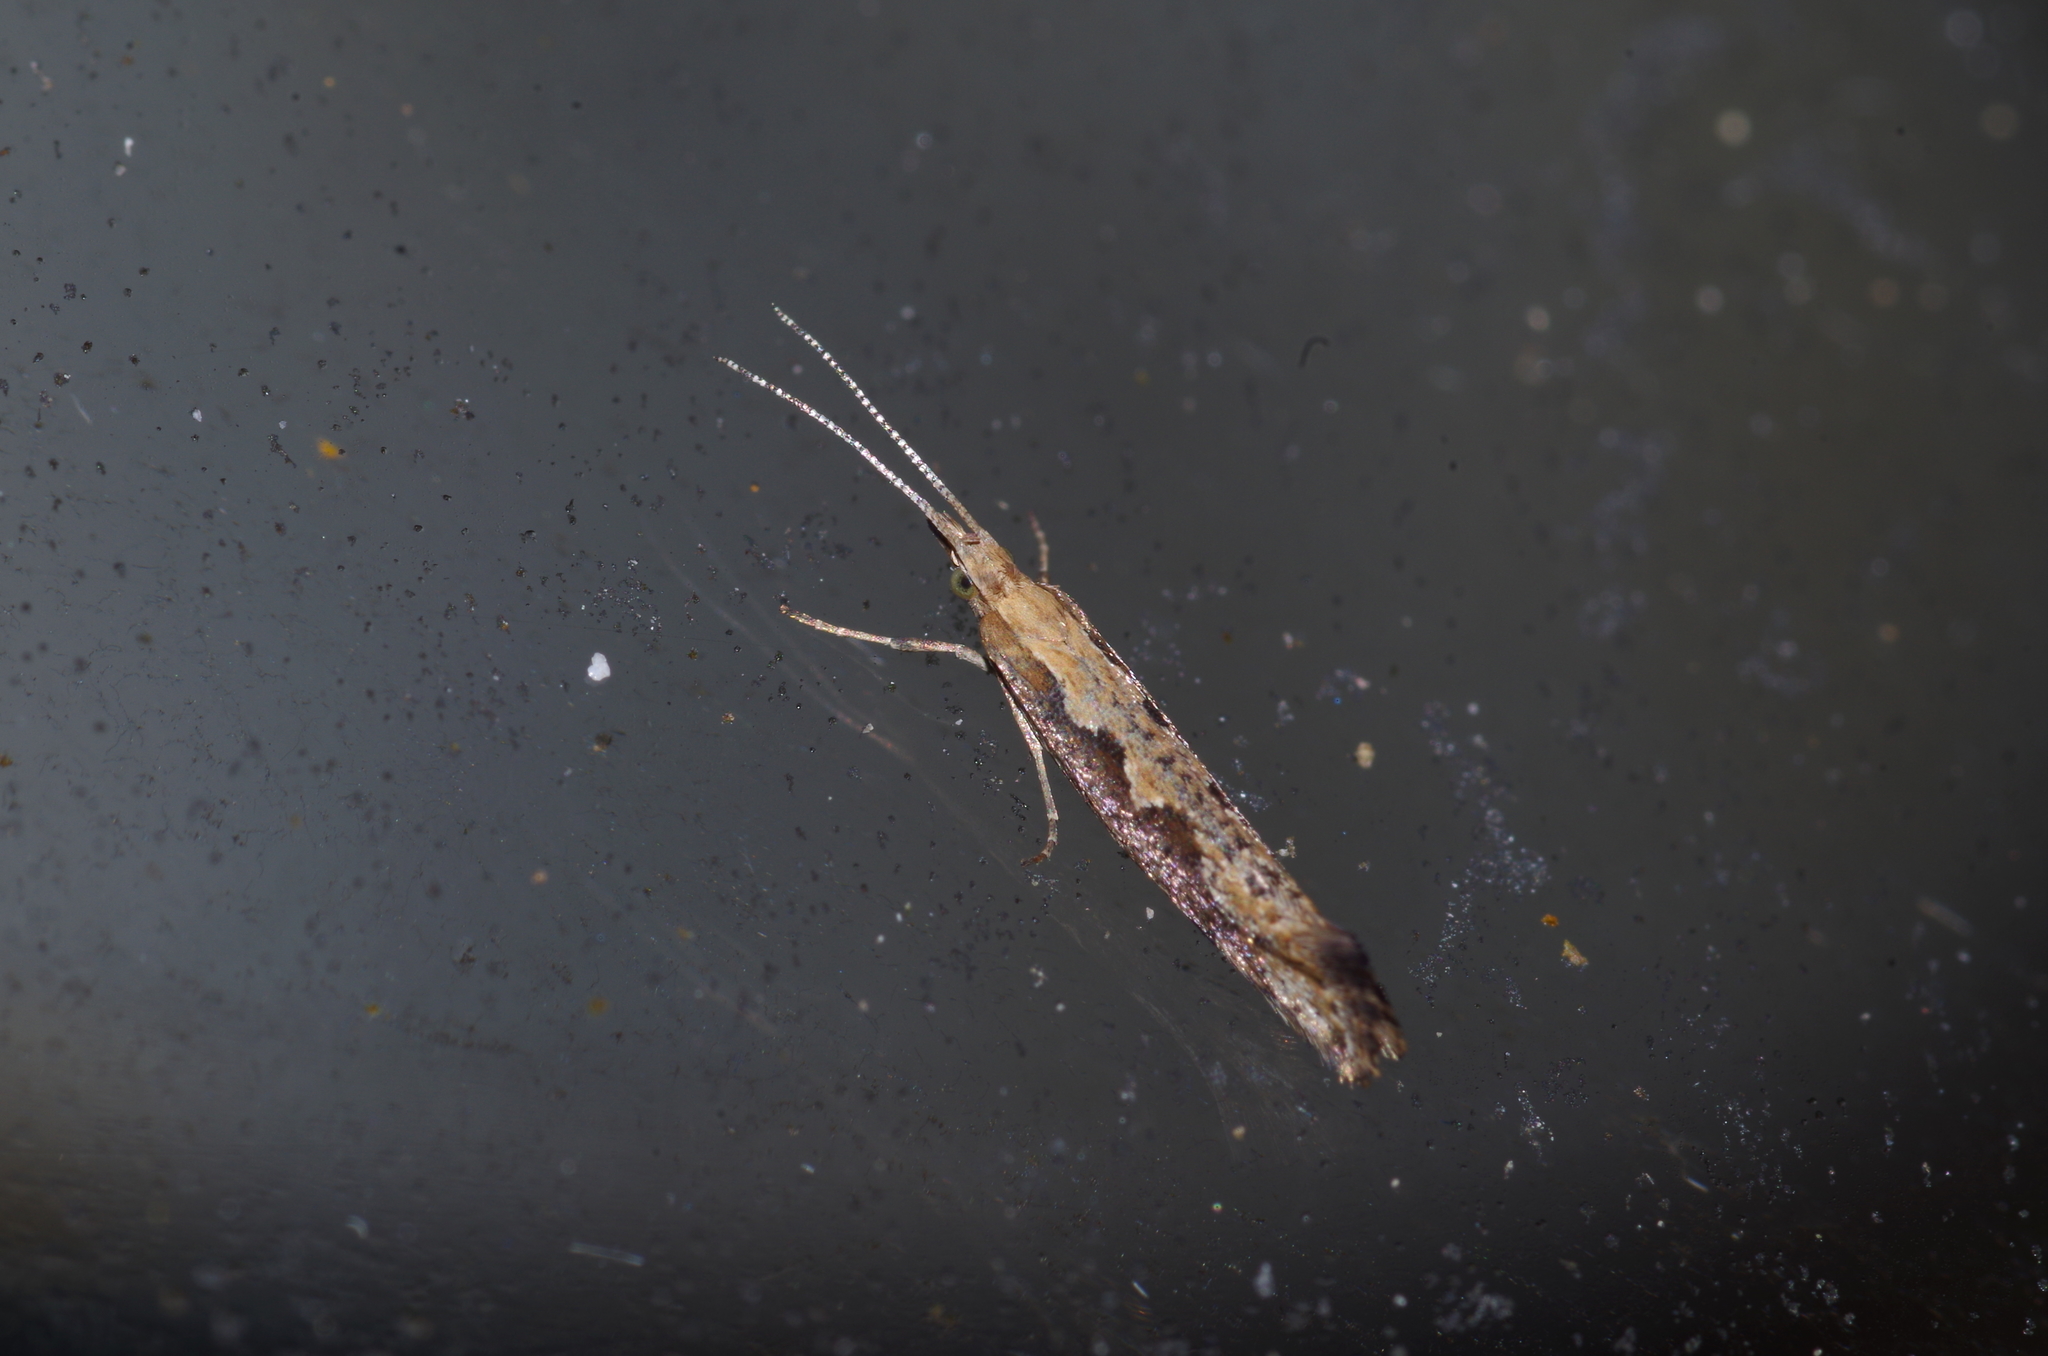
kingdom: Animalia
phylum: Arthropoda
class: Insecta
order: Lepidoptera
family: Plutellidae
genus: Plutella
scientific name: Plutella xylostella
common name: Diamond-back moth
